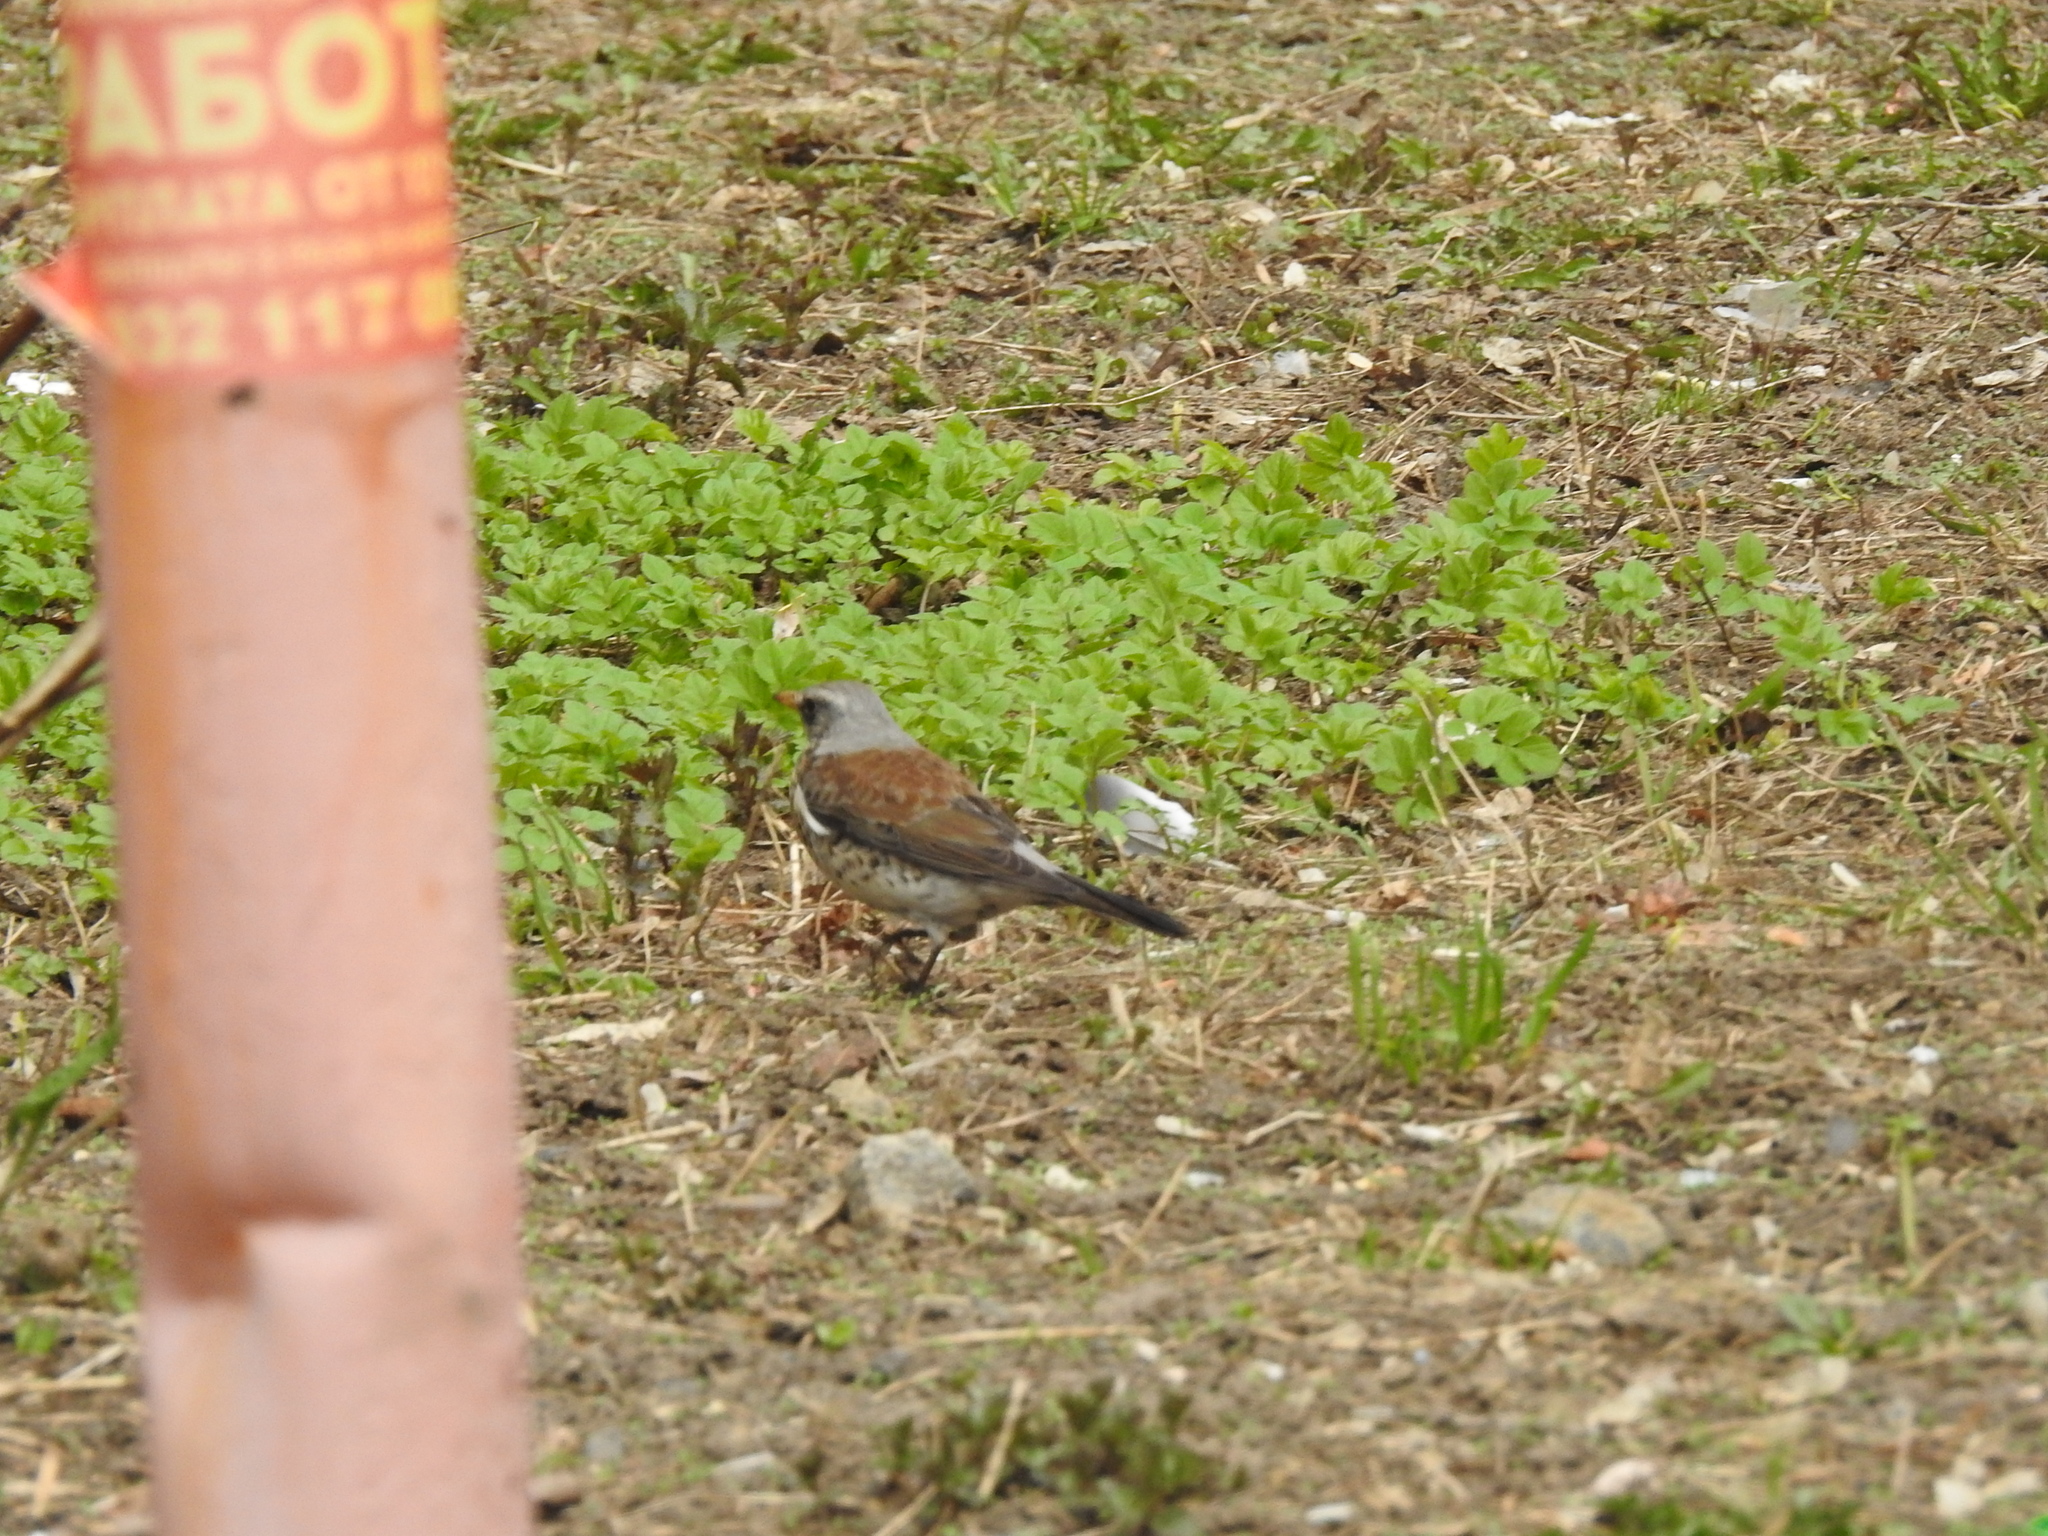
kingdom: Animalia
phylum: Chordata
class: Aves
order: Passeriformes
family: Turdidae
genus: Turdus
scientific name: Turdus pilaris
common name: Fieldfare
